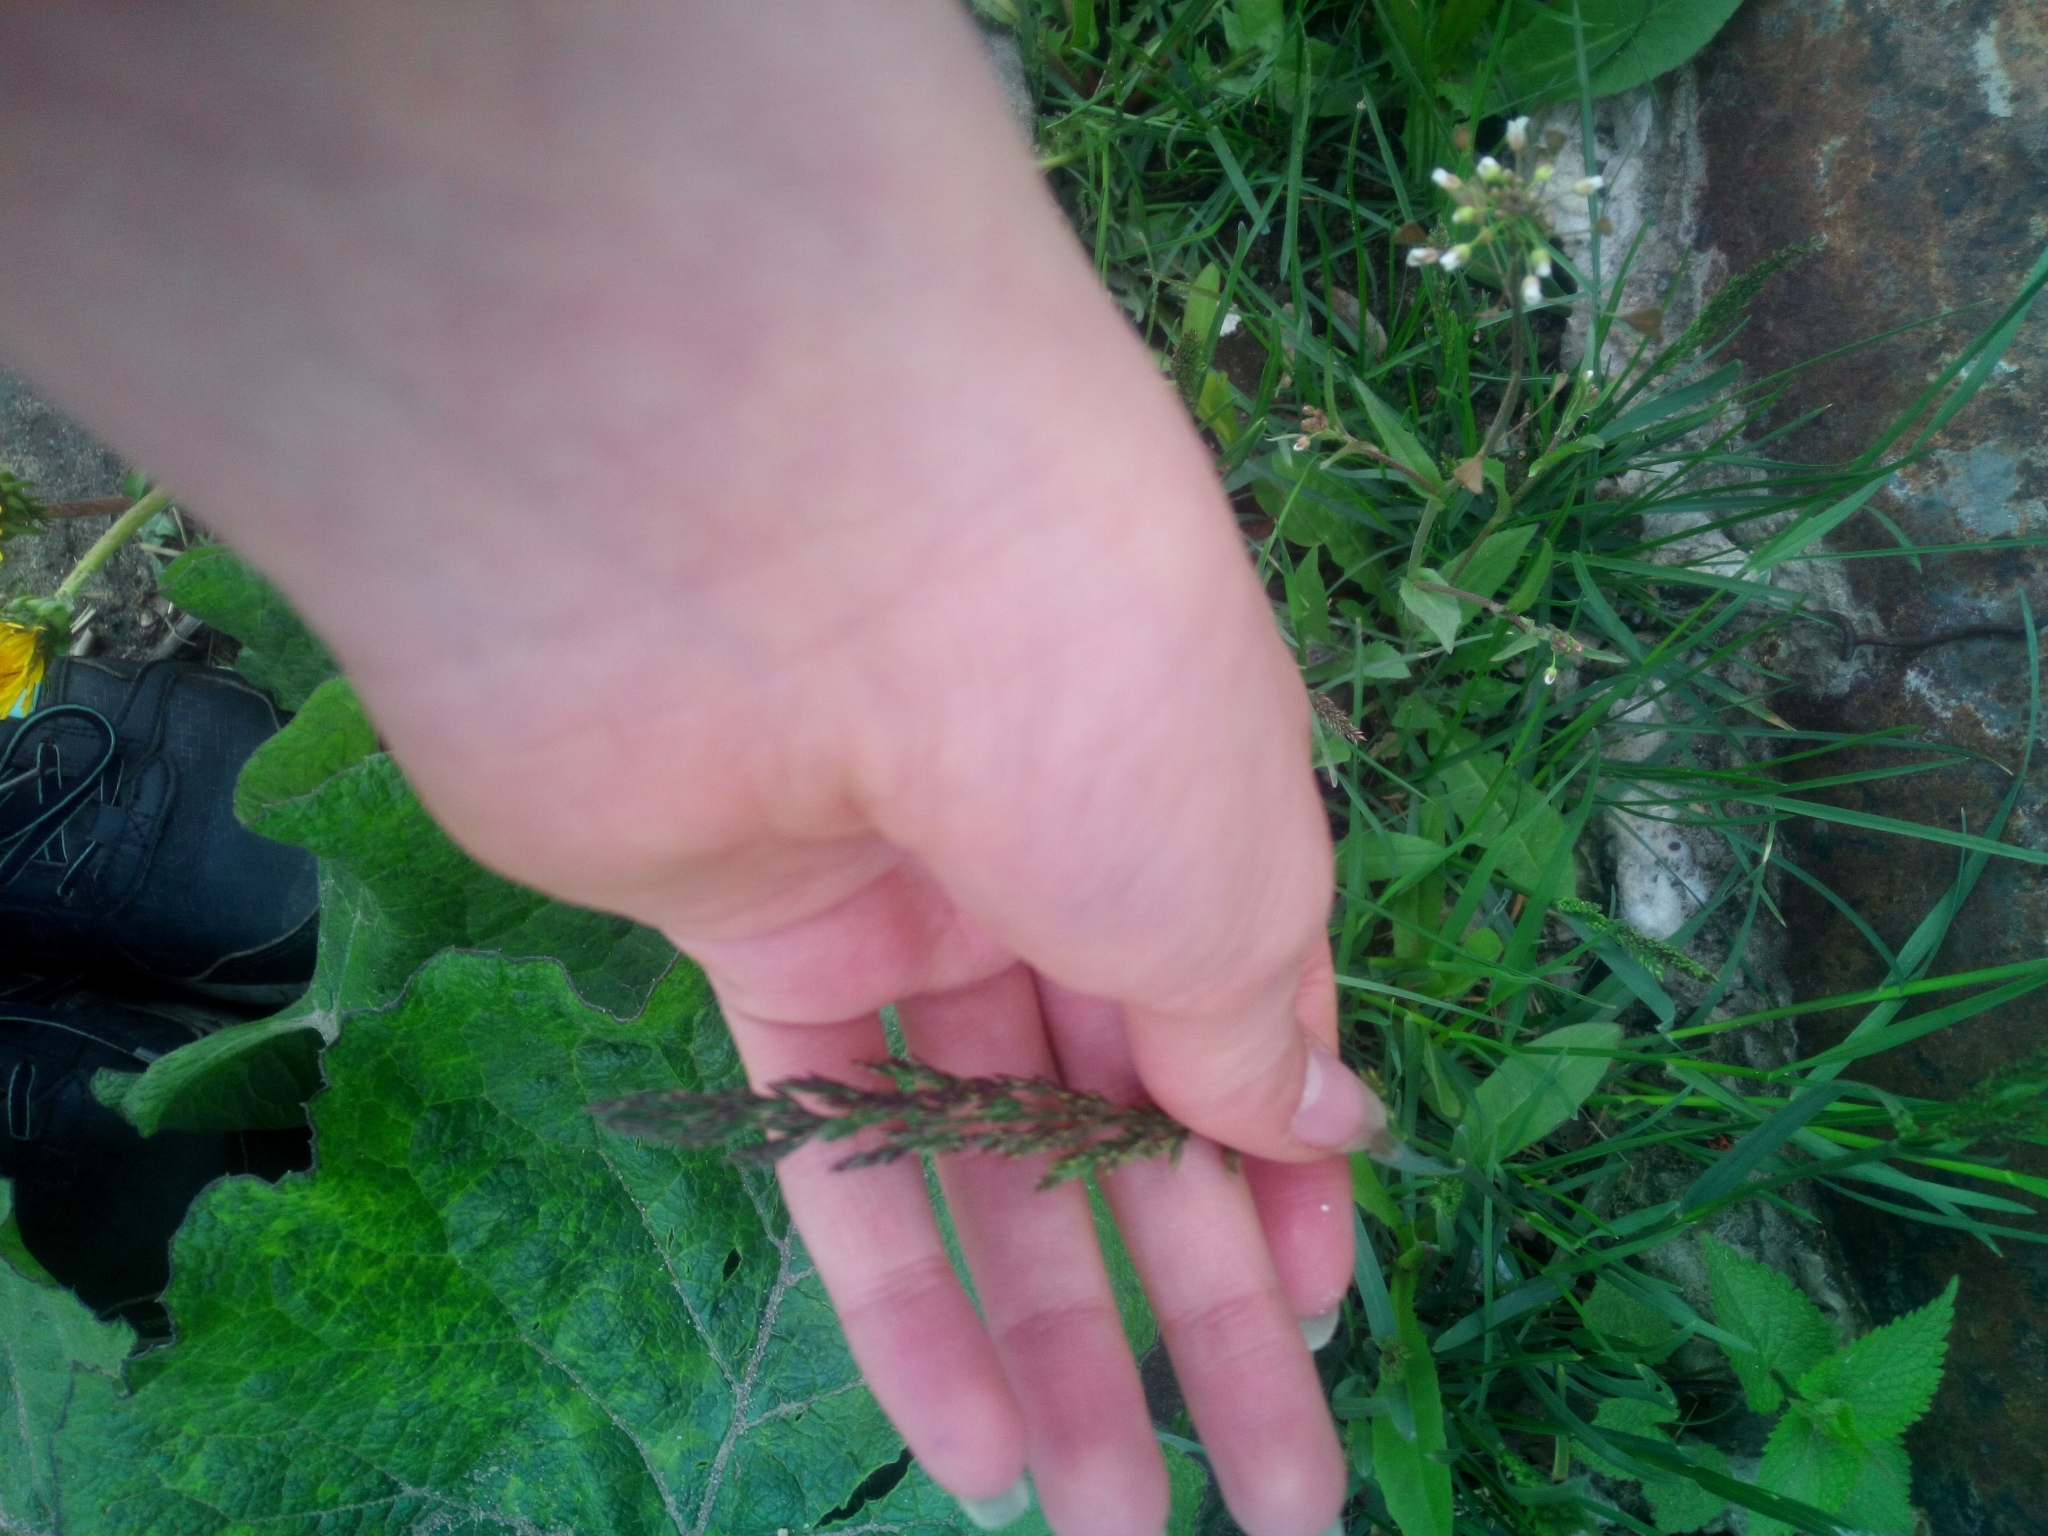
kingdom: Plantae
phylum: Tracheophyta
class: Liliopsida
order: Poales
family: Poaceae
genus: Poa
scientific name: Poa pratensis
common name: Kentucky bluegrass
